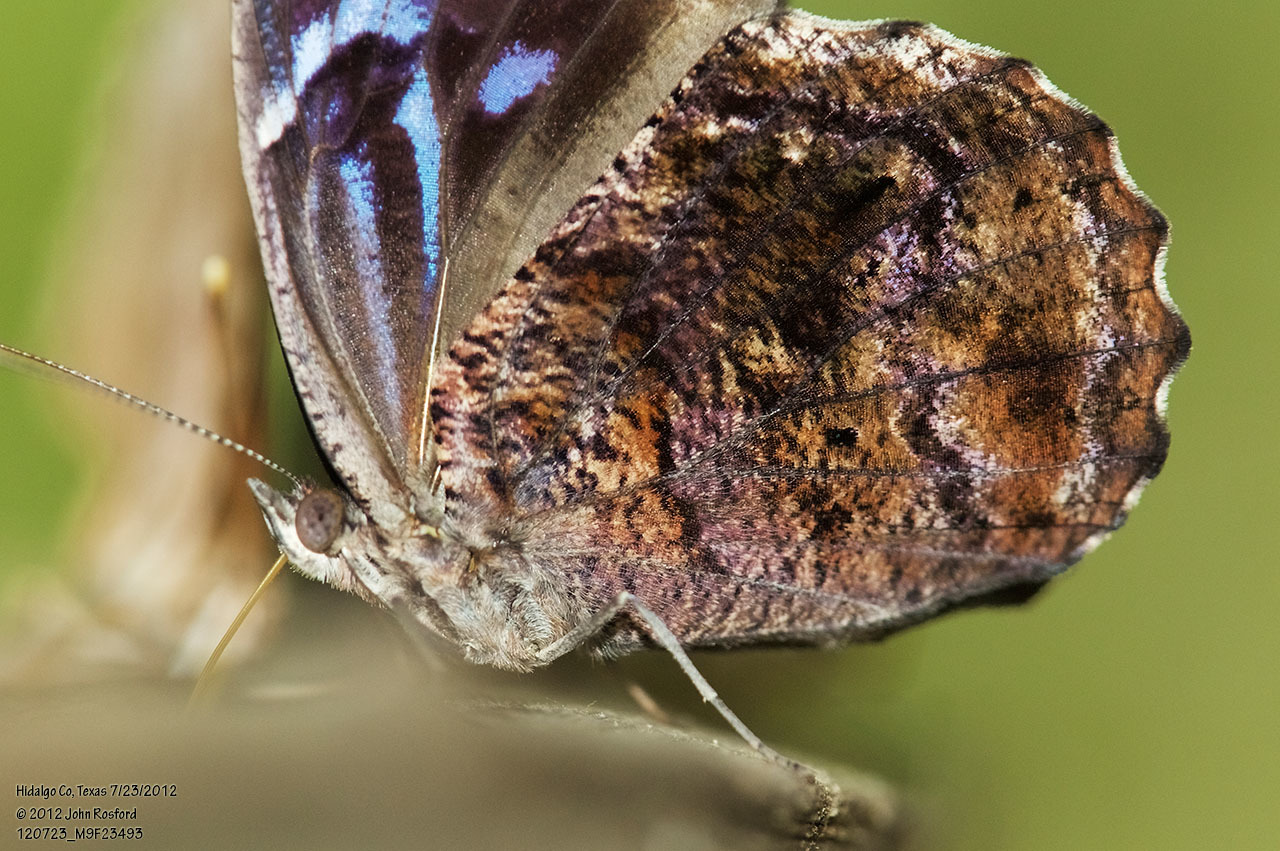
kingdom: Animalia
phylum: Arthropoda
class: Insecta
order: Lepidoptera
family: Nymphalidae
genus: Myscelia
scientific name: Myscelia ethusa
